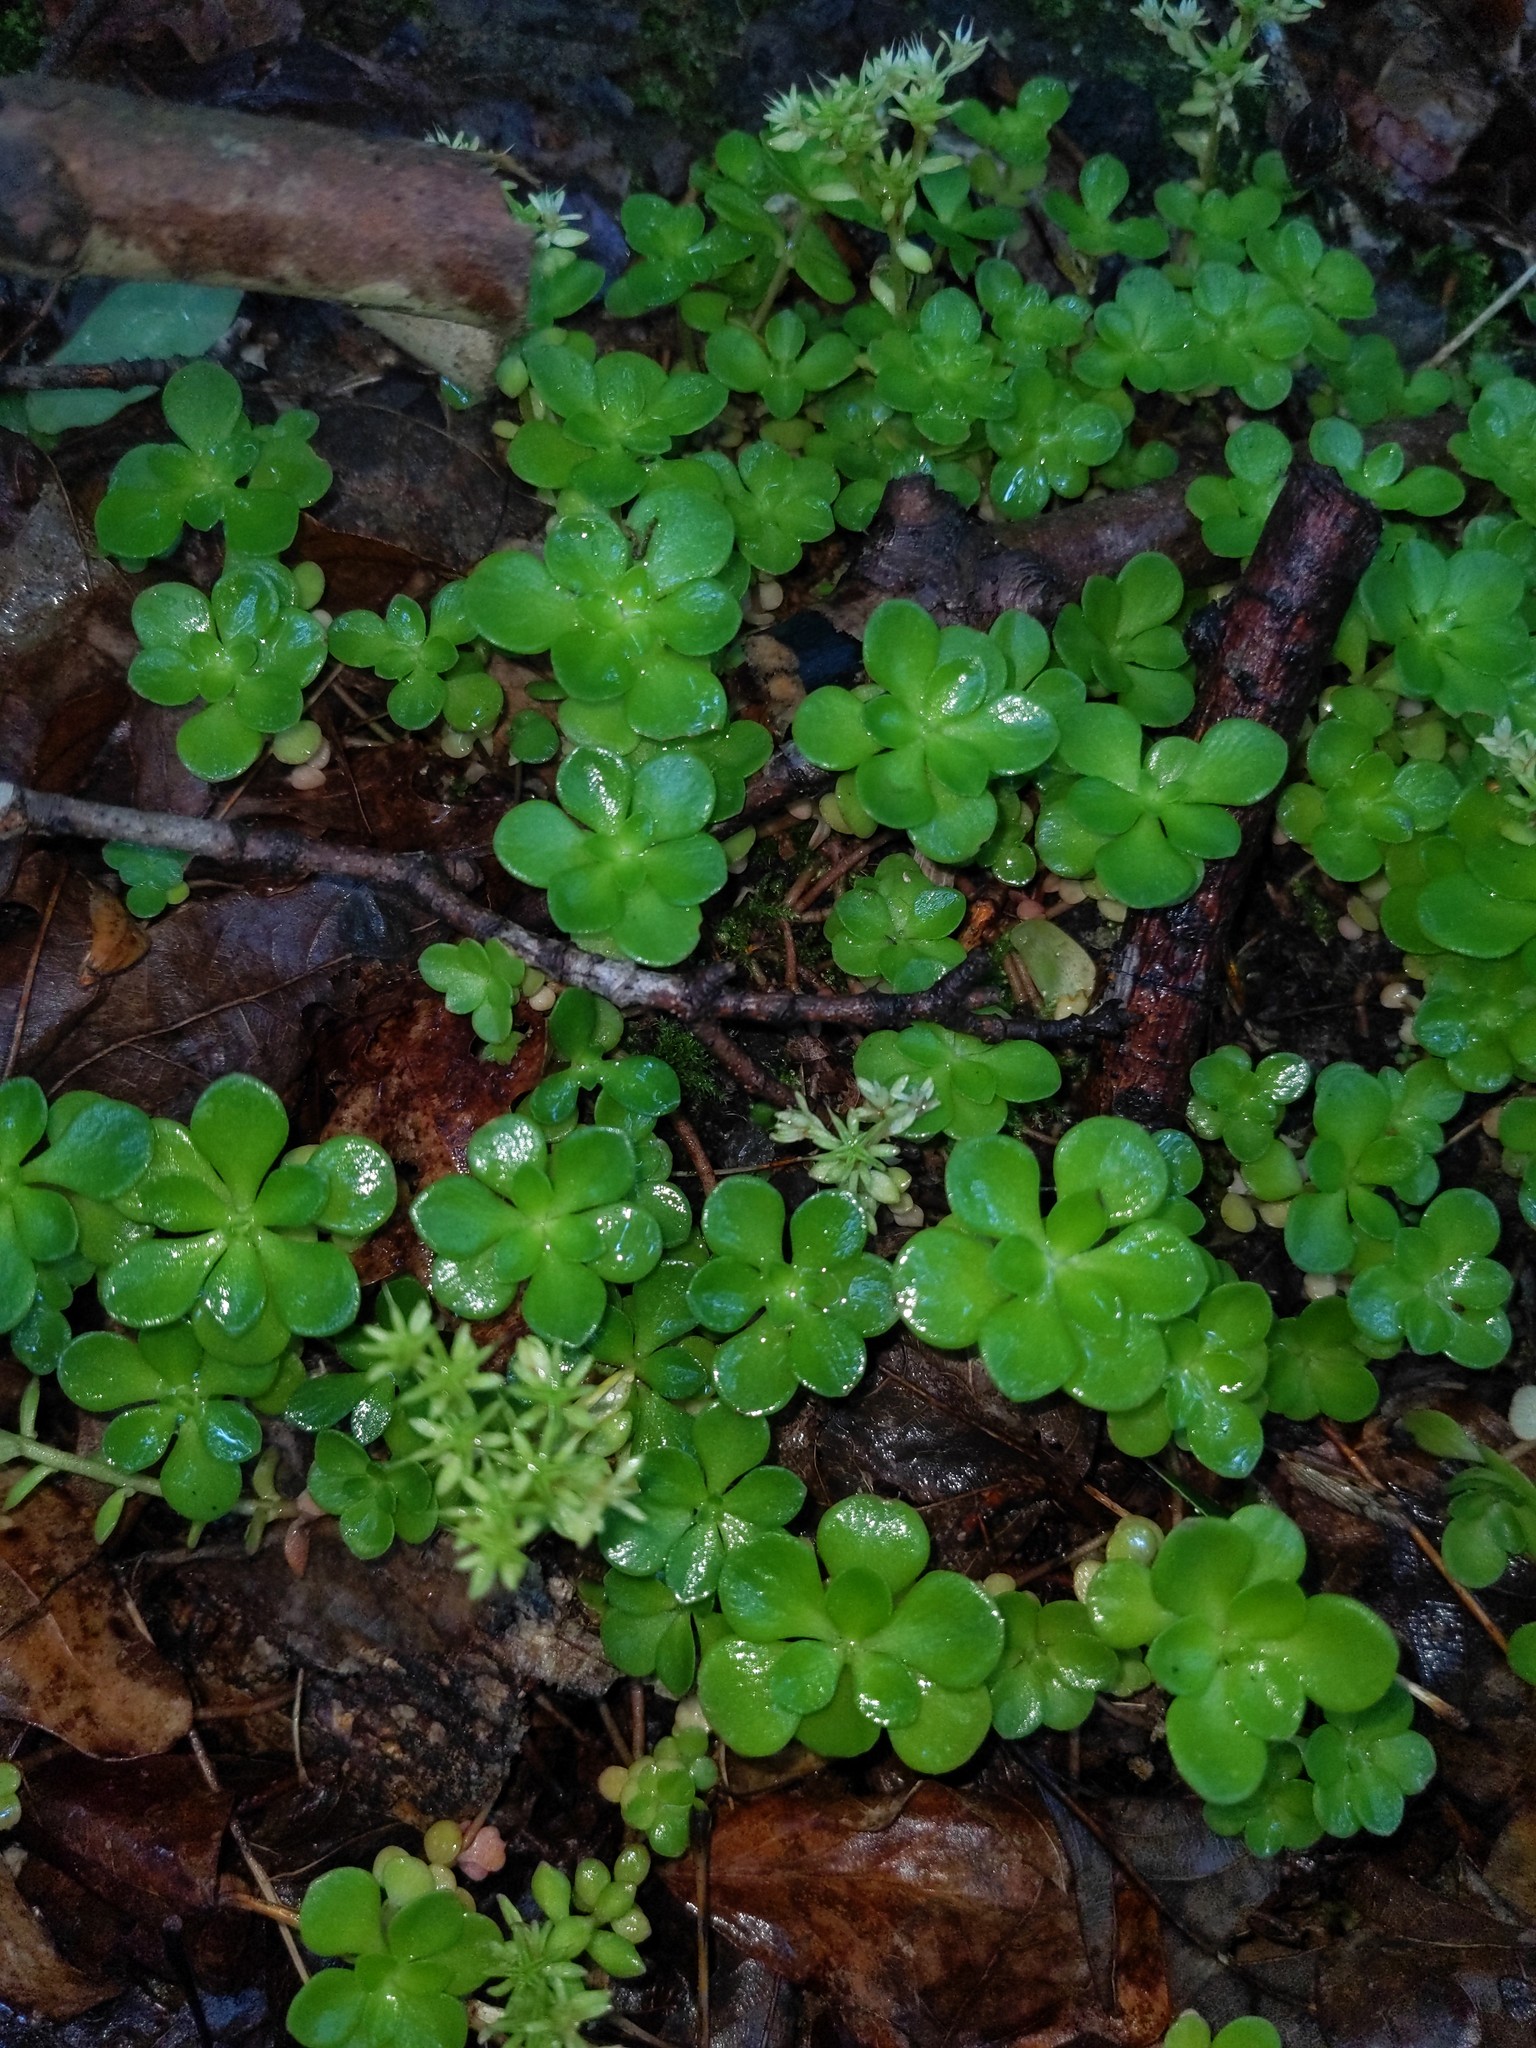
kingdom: Plantae
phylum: Tracheophyta
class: Magnoliopsida
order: Saxifragales
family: Crassulaceae
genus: Sedum
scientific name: Sedum ternatum
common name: Wild stonecrop
